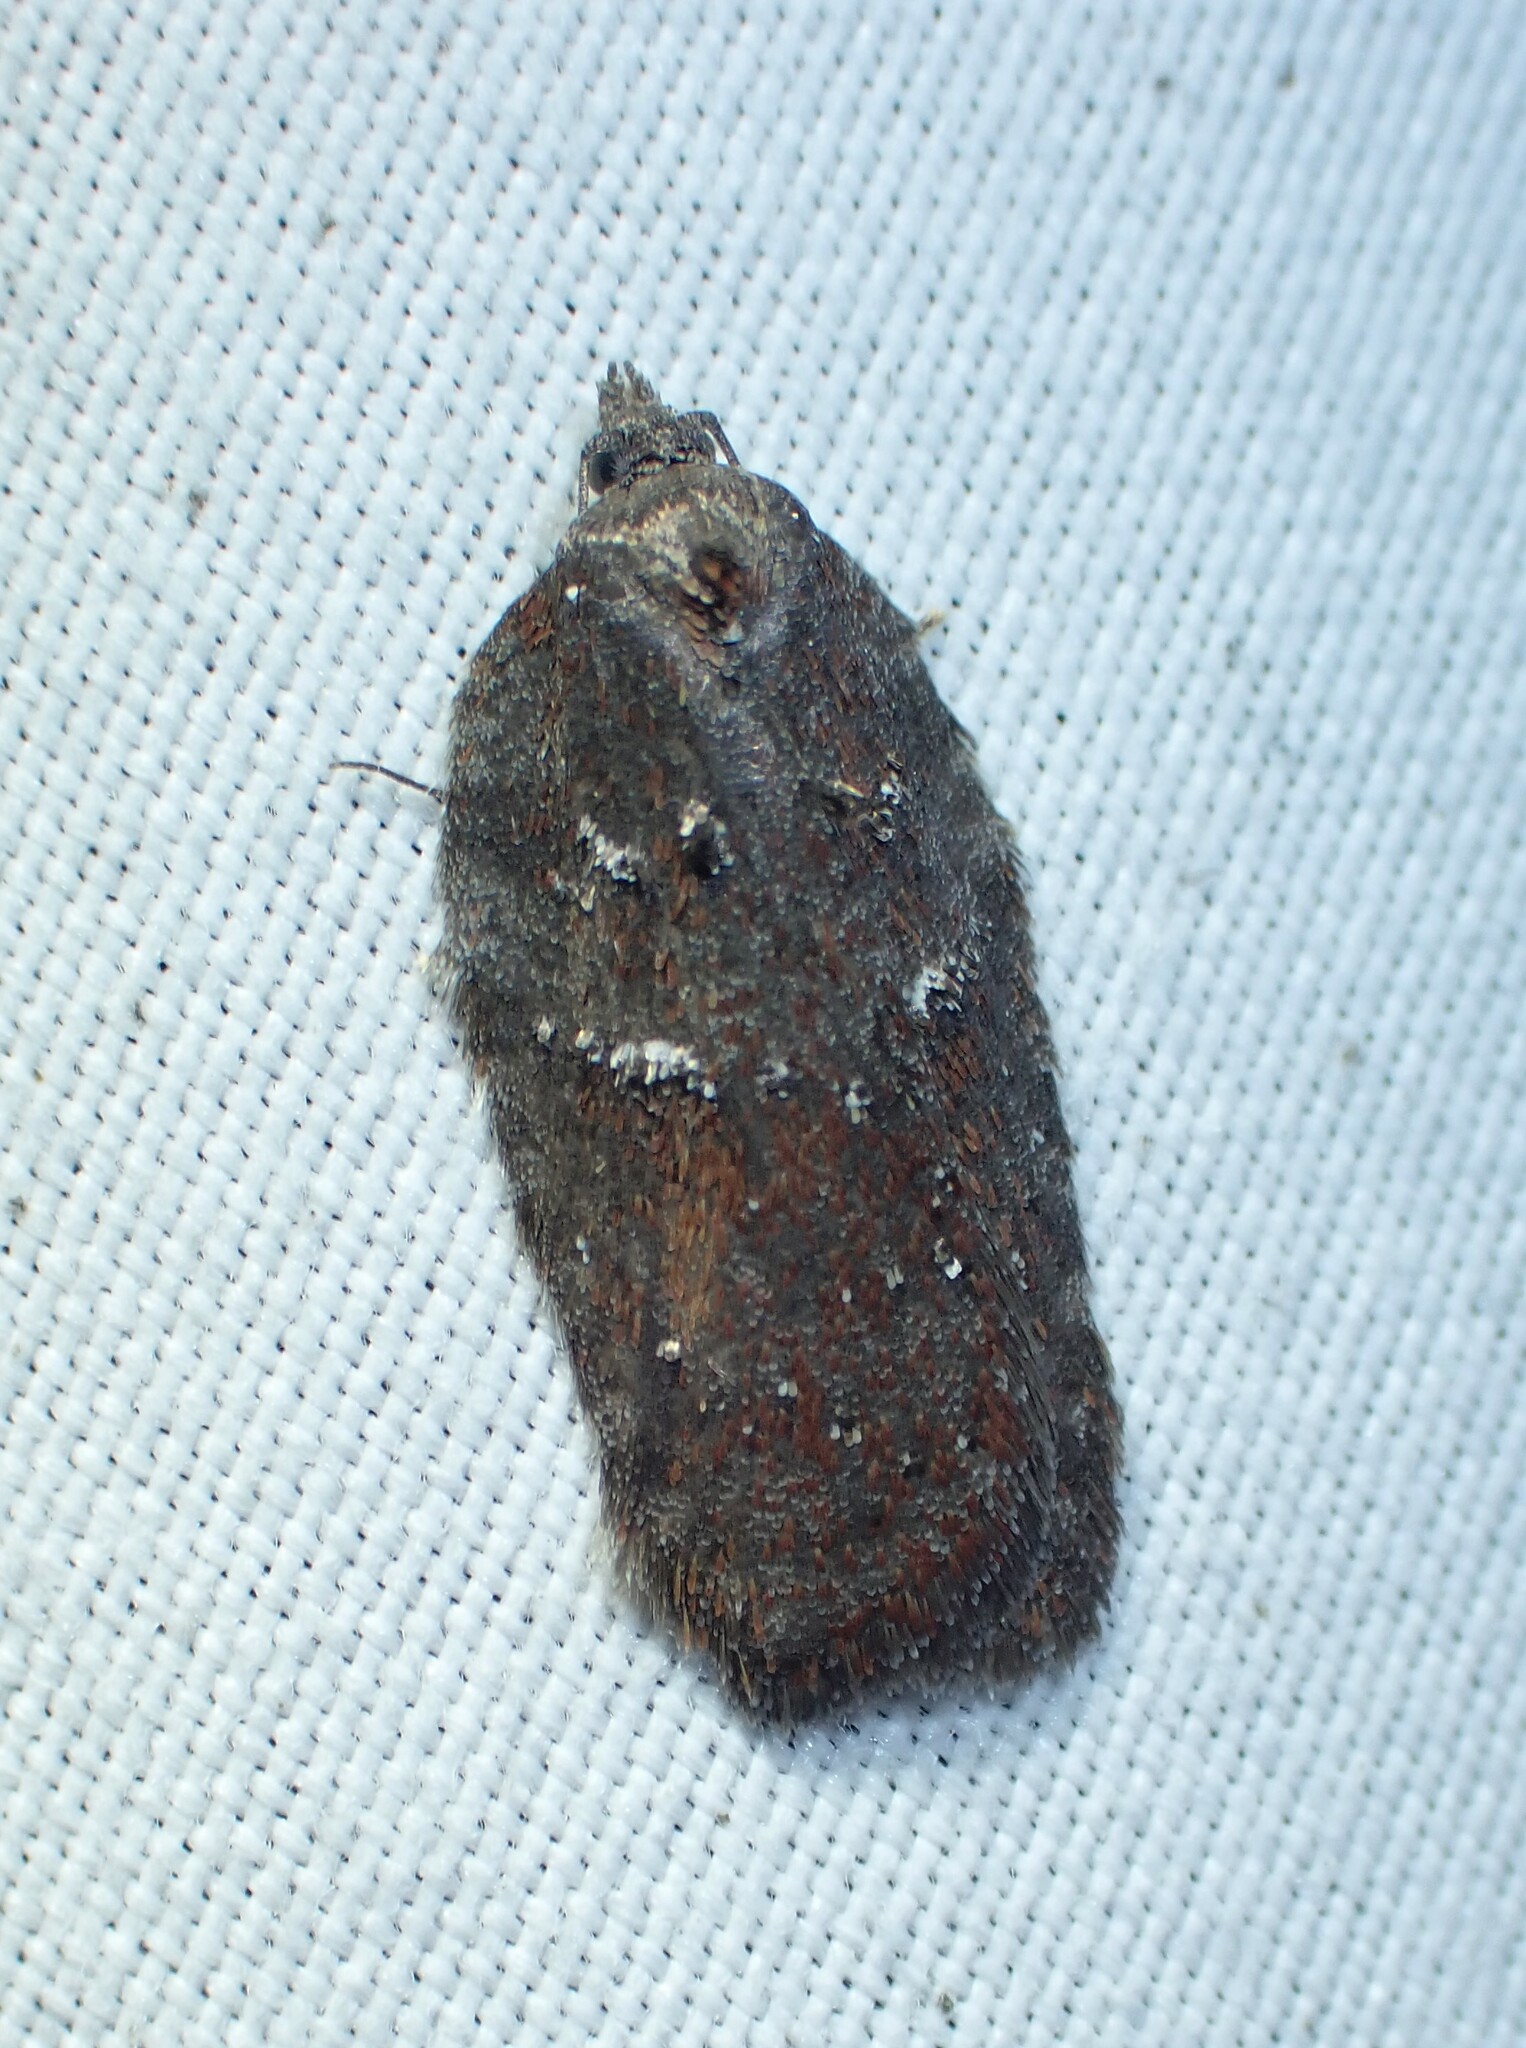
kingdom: Animalia
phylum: Arthropoda
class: Insecta
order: Lepidoptera
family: Tortricidae
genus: Acleris
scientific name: Acleris caliginosana
